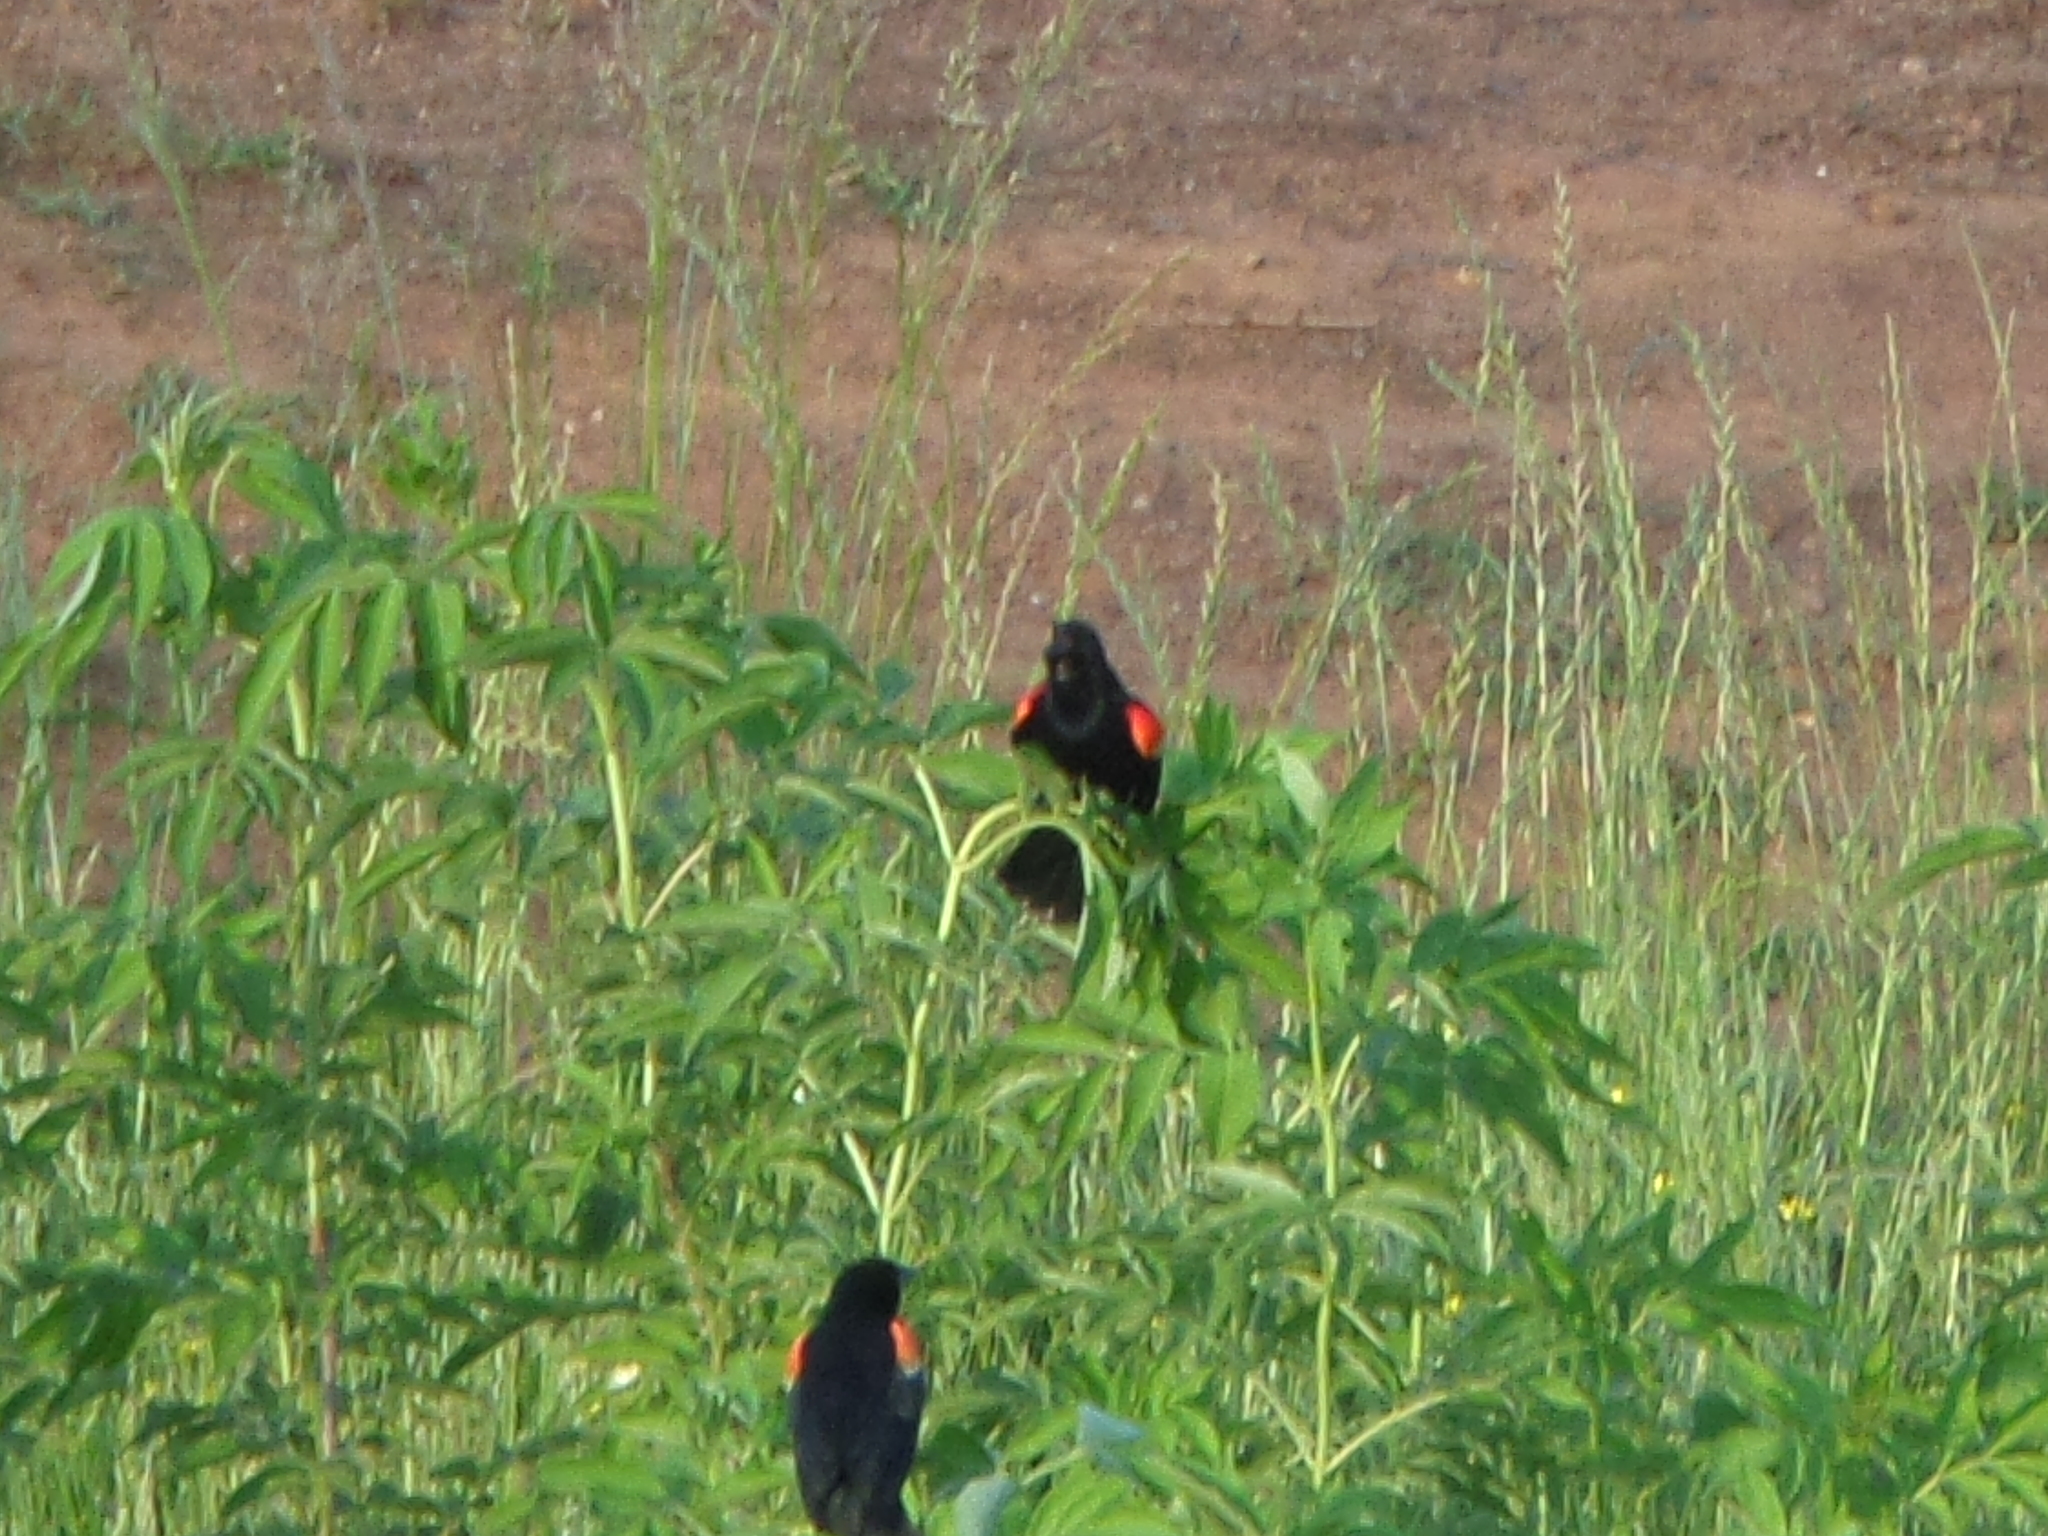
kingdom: Animalia
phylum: Chordata
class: Aves
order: Passeriformes
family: Icteridae
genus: Agelaius
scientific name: Agelaius phoeniceus
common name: Red-winged blackbird
